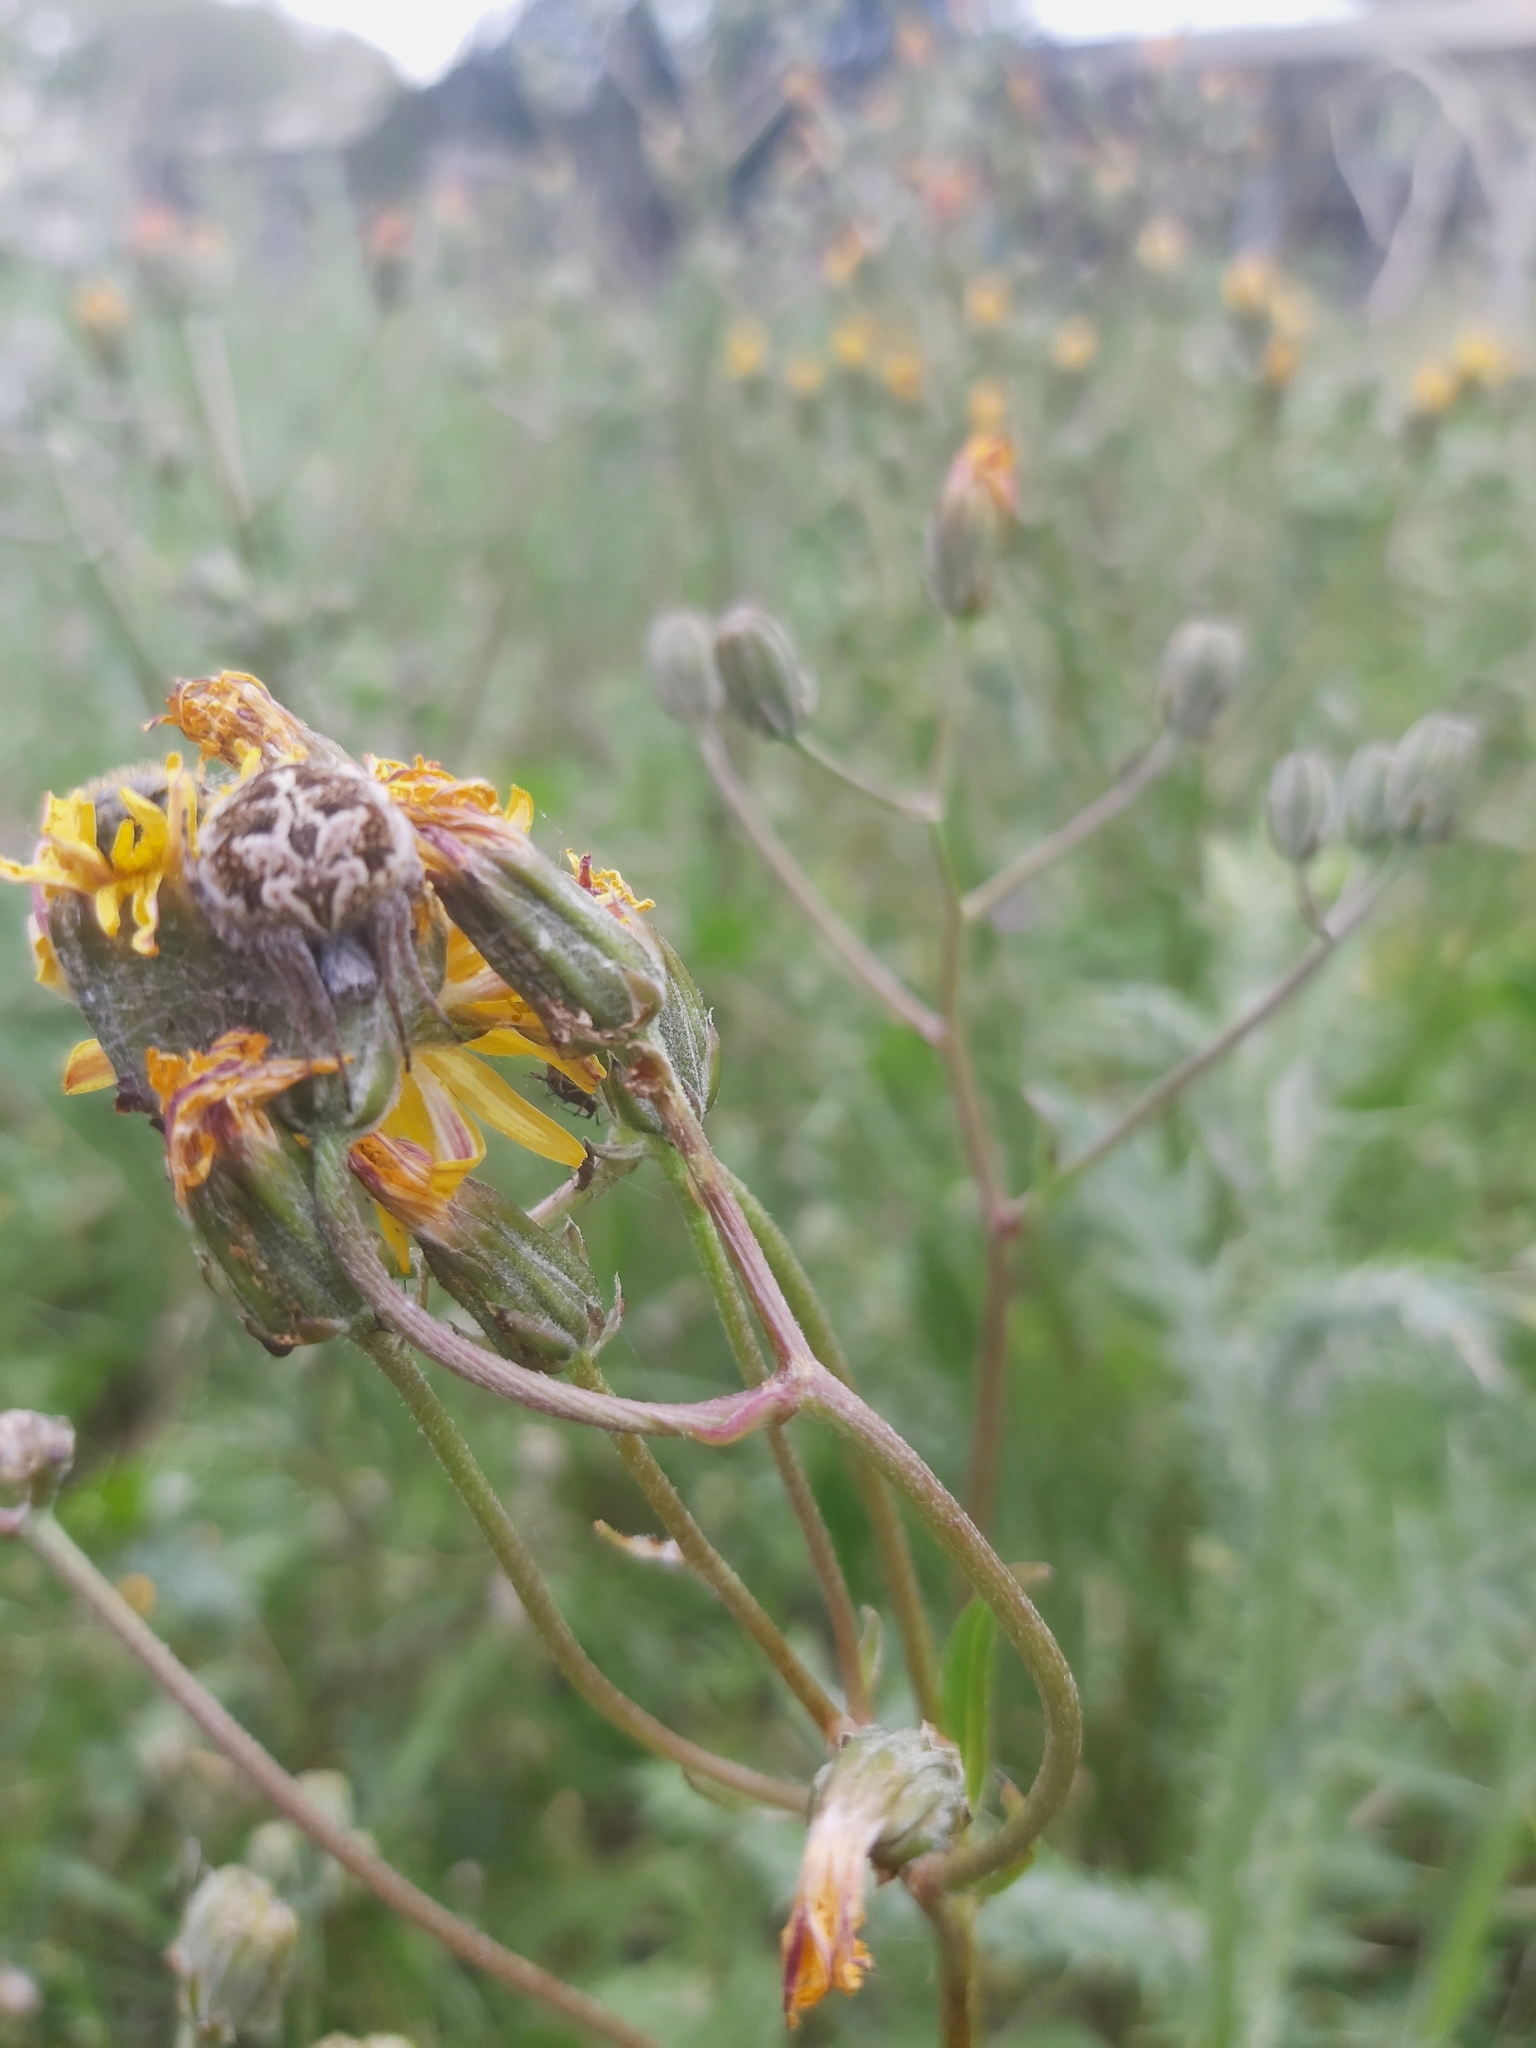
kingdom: Animalia
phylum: Arthropoda
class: Arachnida
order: Araneae
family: Araneidae
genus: Agalenatea
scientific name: Agalenatea redii
